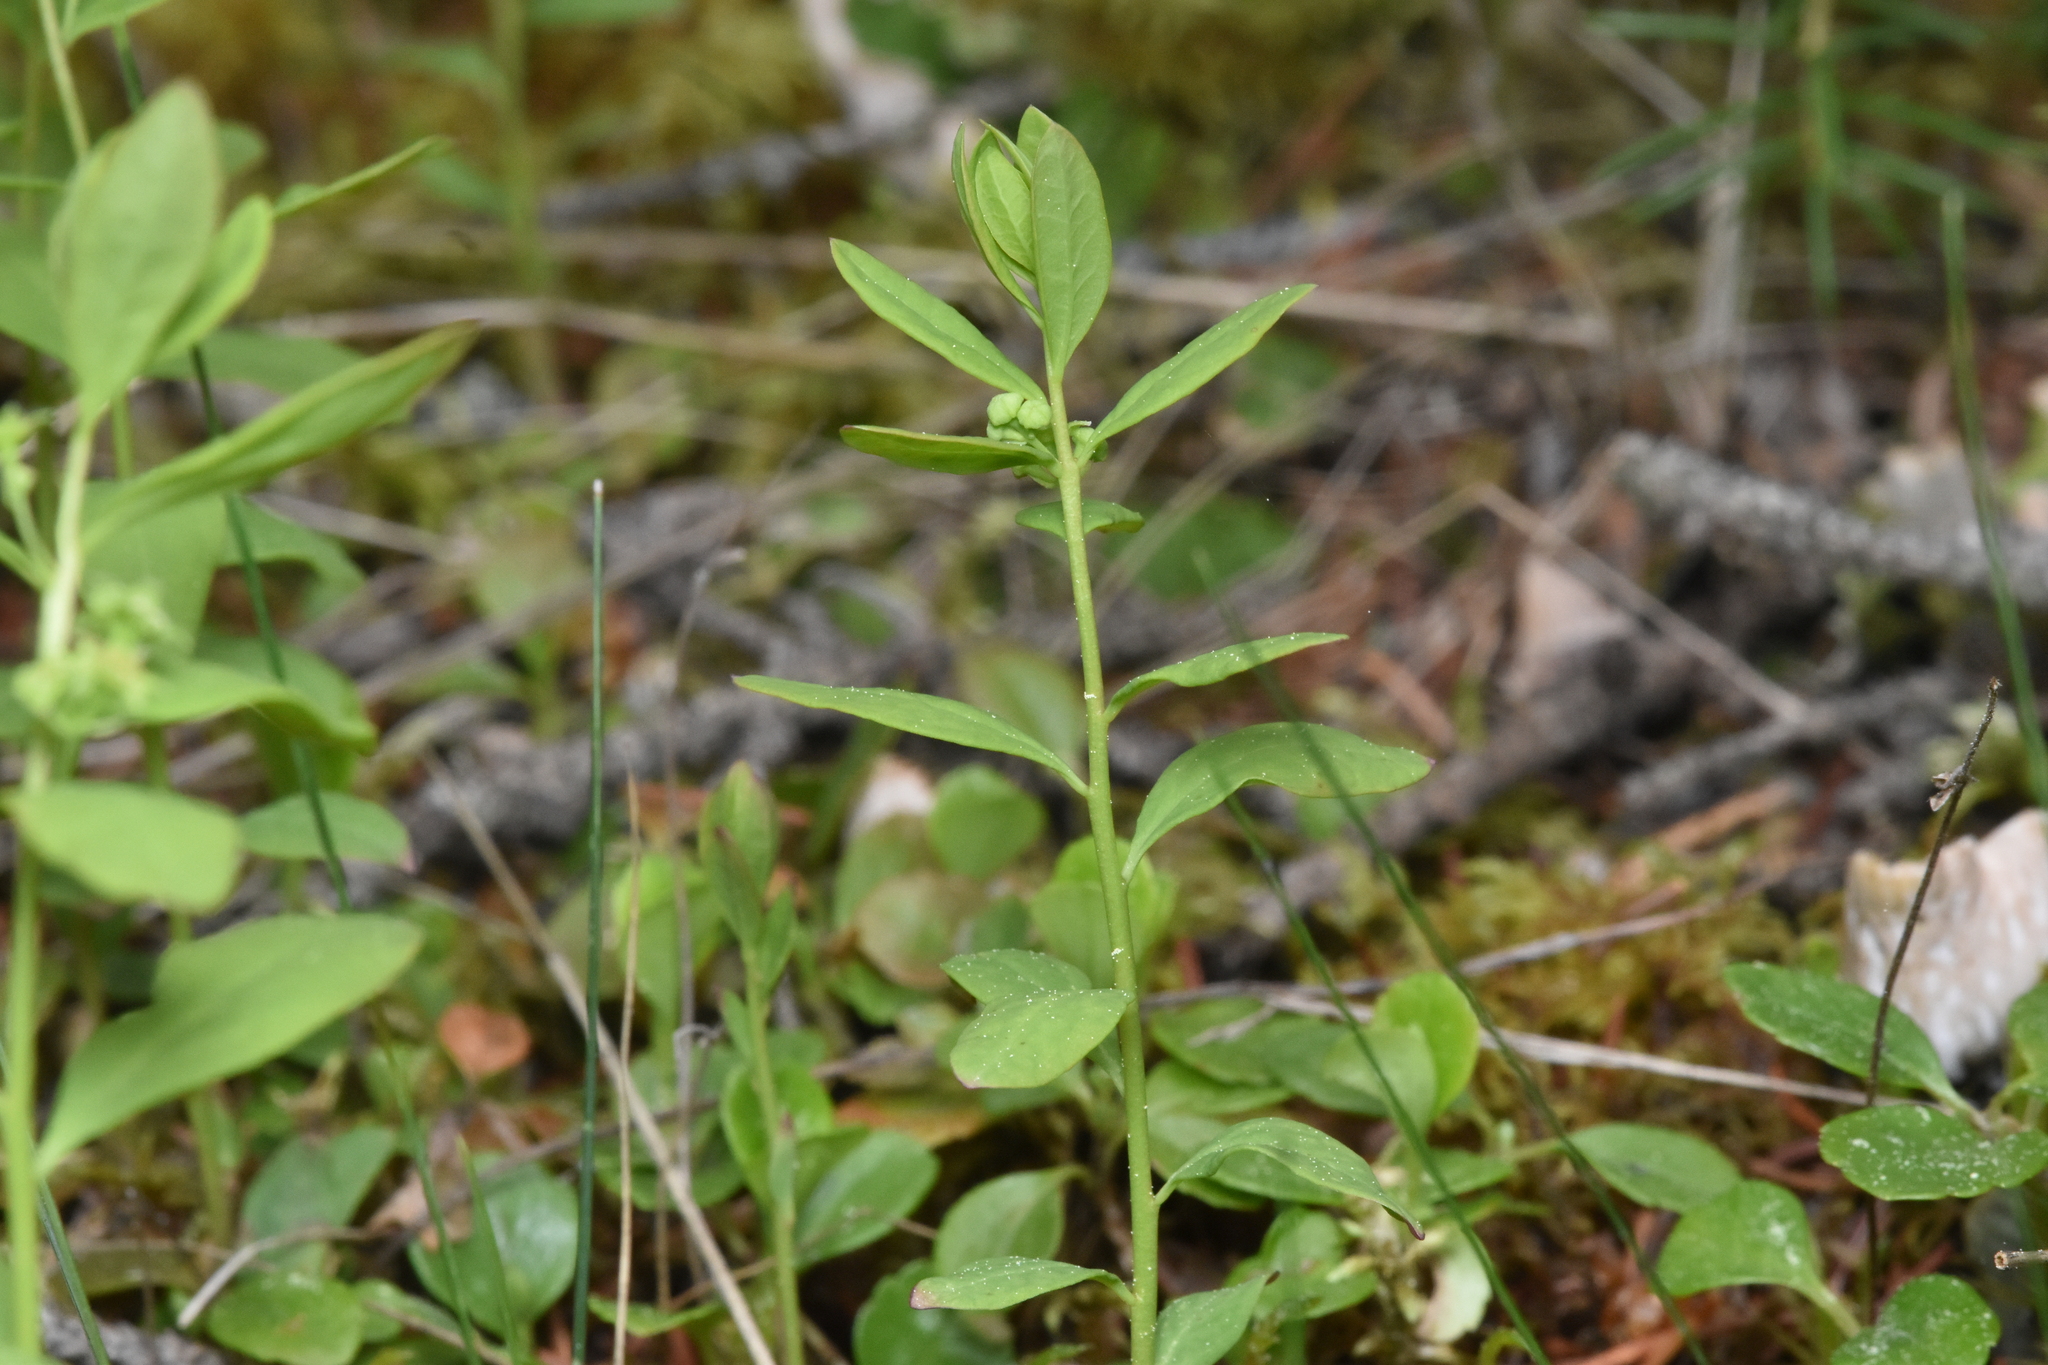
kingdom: Plantae
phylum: Tracheophyta
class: Magnoliopsida
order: Santalales
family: Comandraceae
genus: Geocaulon
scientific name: Geocaulon lividum
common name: Earthberry
